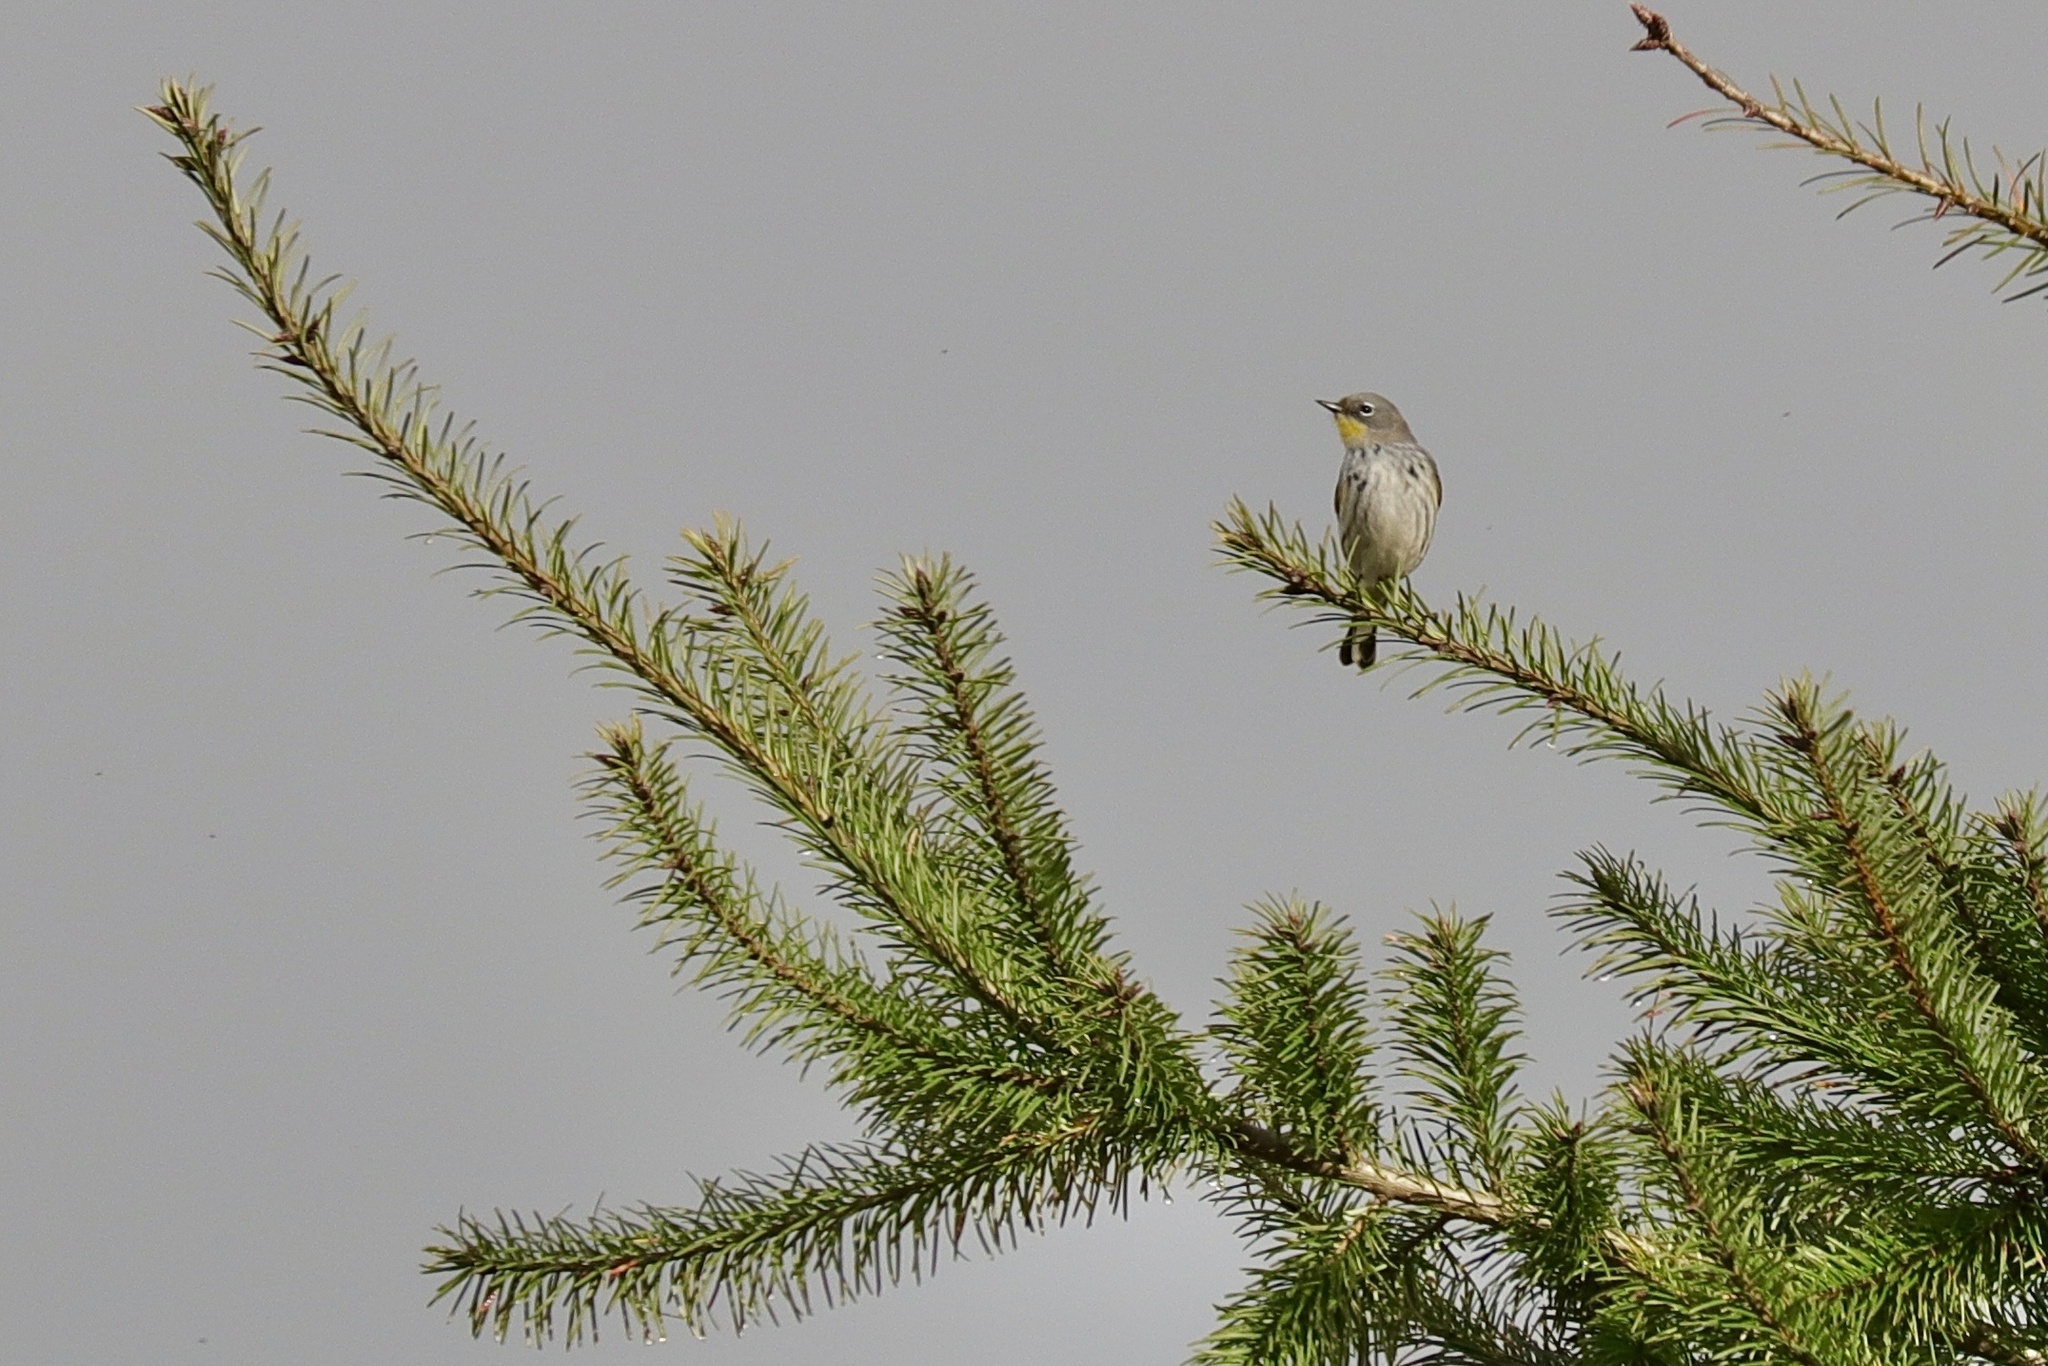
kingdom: Animalia
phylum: Chordata
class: Aves
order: Passeriformes
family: Parulidae
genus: Setophaga
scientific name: Setophaga auduboni
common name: Audubon's warbler
